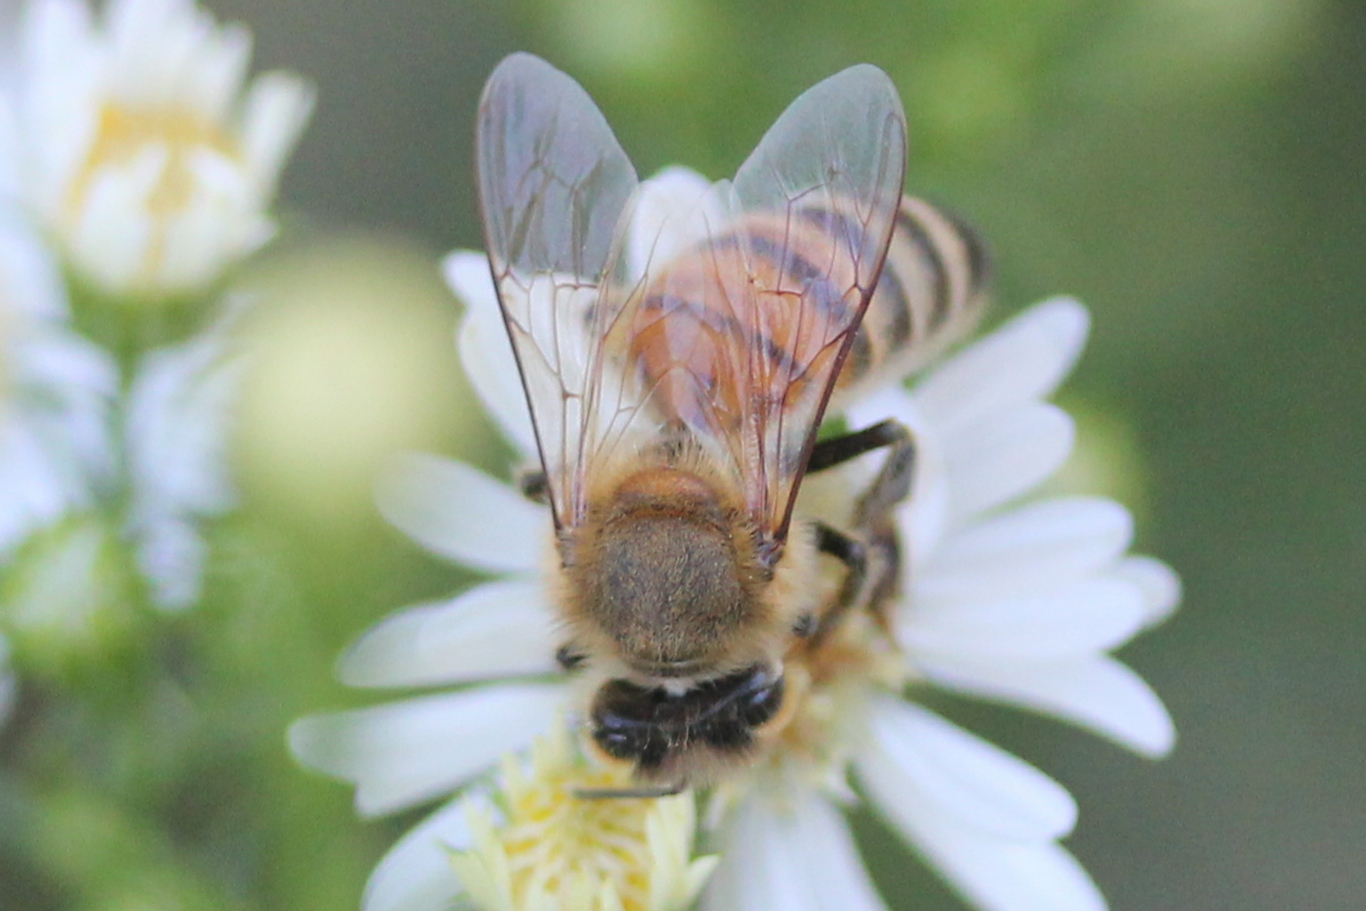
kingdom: Animalia
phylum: Arthropoda
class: Insecta
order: Hymenoptera
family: Apidae
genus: Apis
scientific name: Apis mellifera
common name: Honey bee
